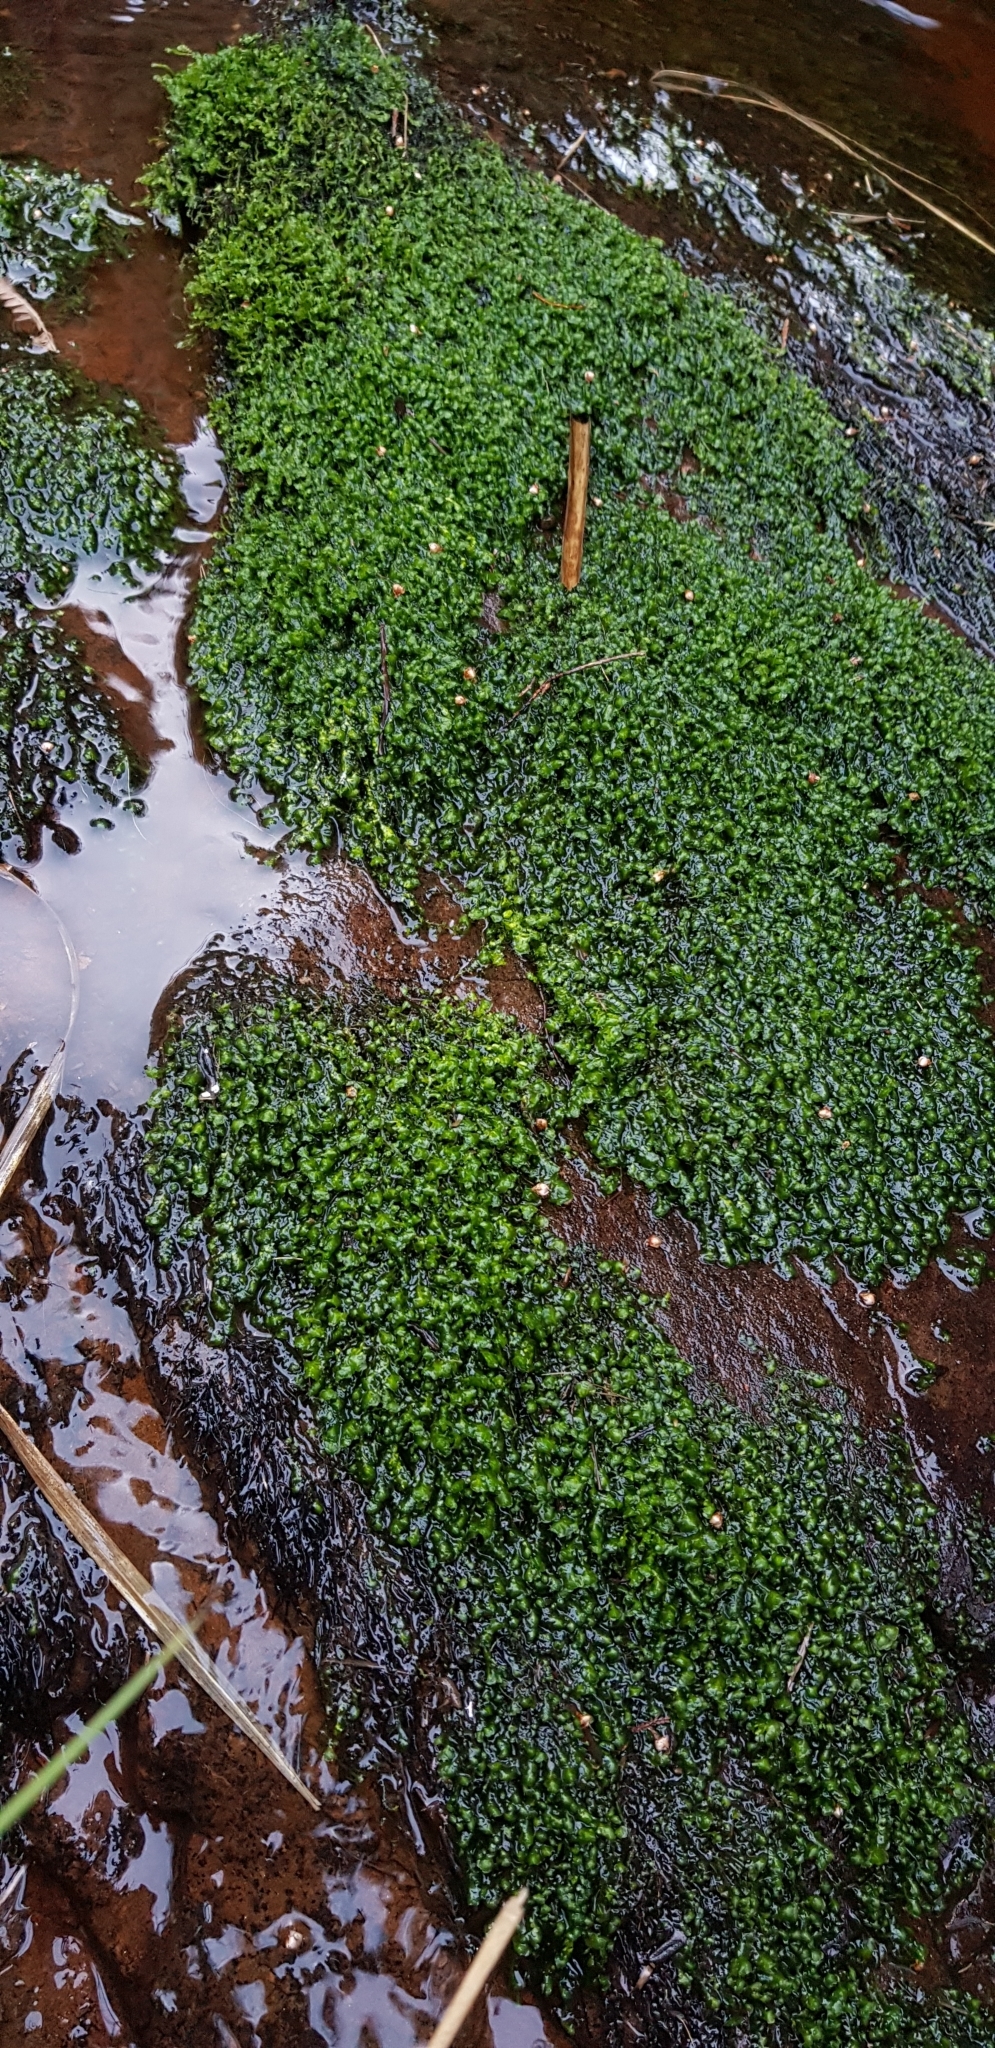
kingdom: Plantae
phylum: Marchantiophyta
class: Jungermanniopsida
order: Jungermanniales
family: Scapaniaceae
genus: Scapania
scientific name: Scapania undulata
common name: Water earwort
